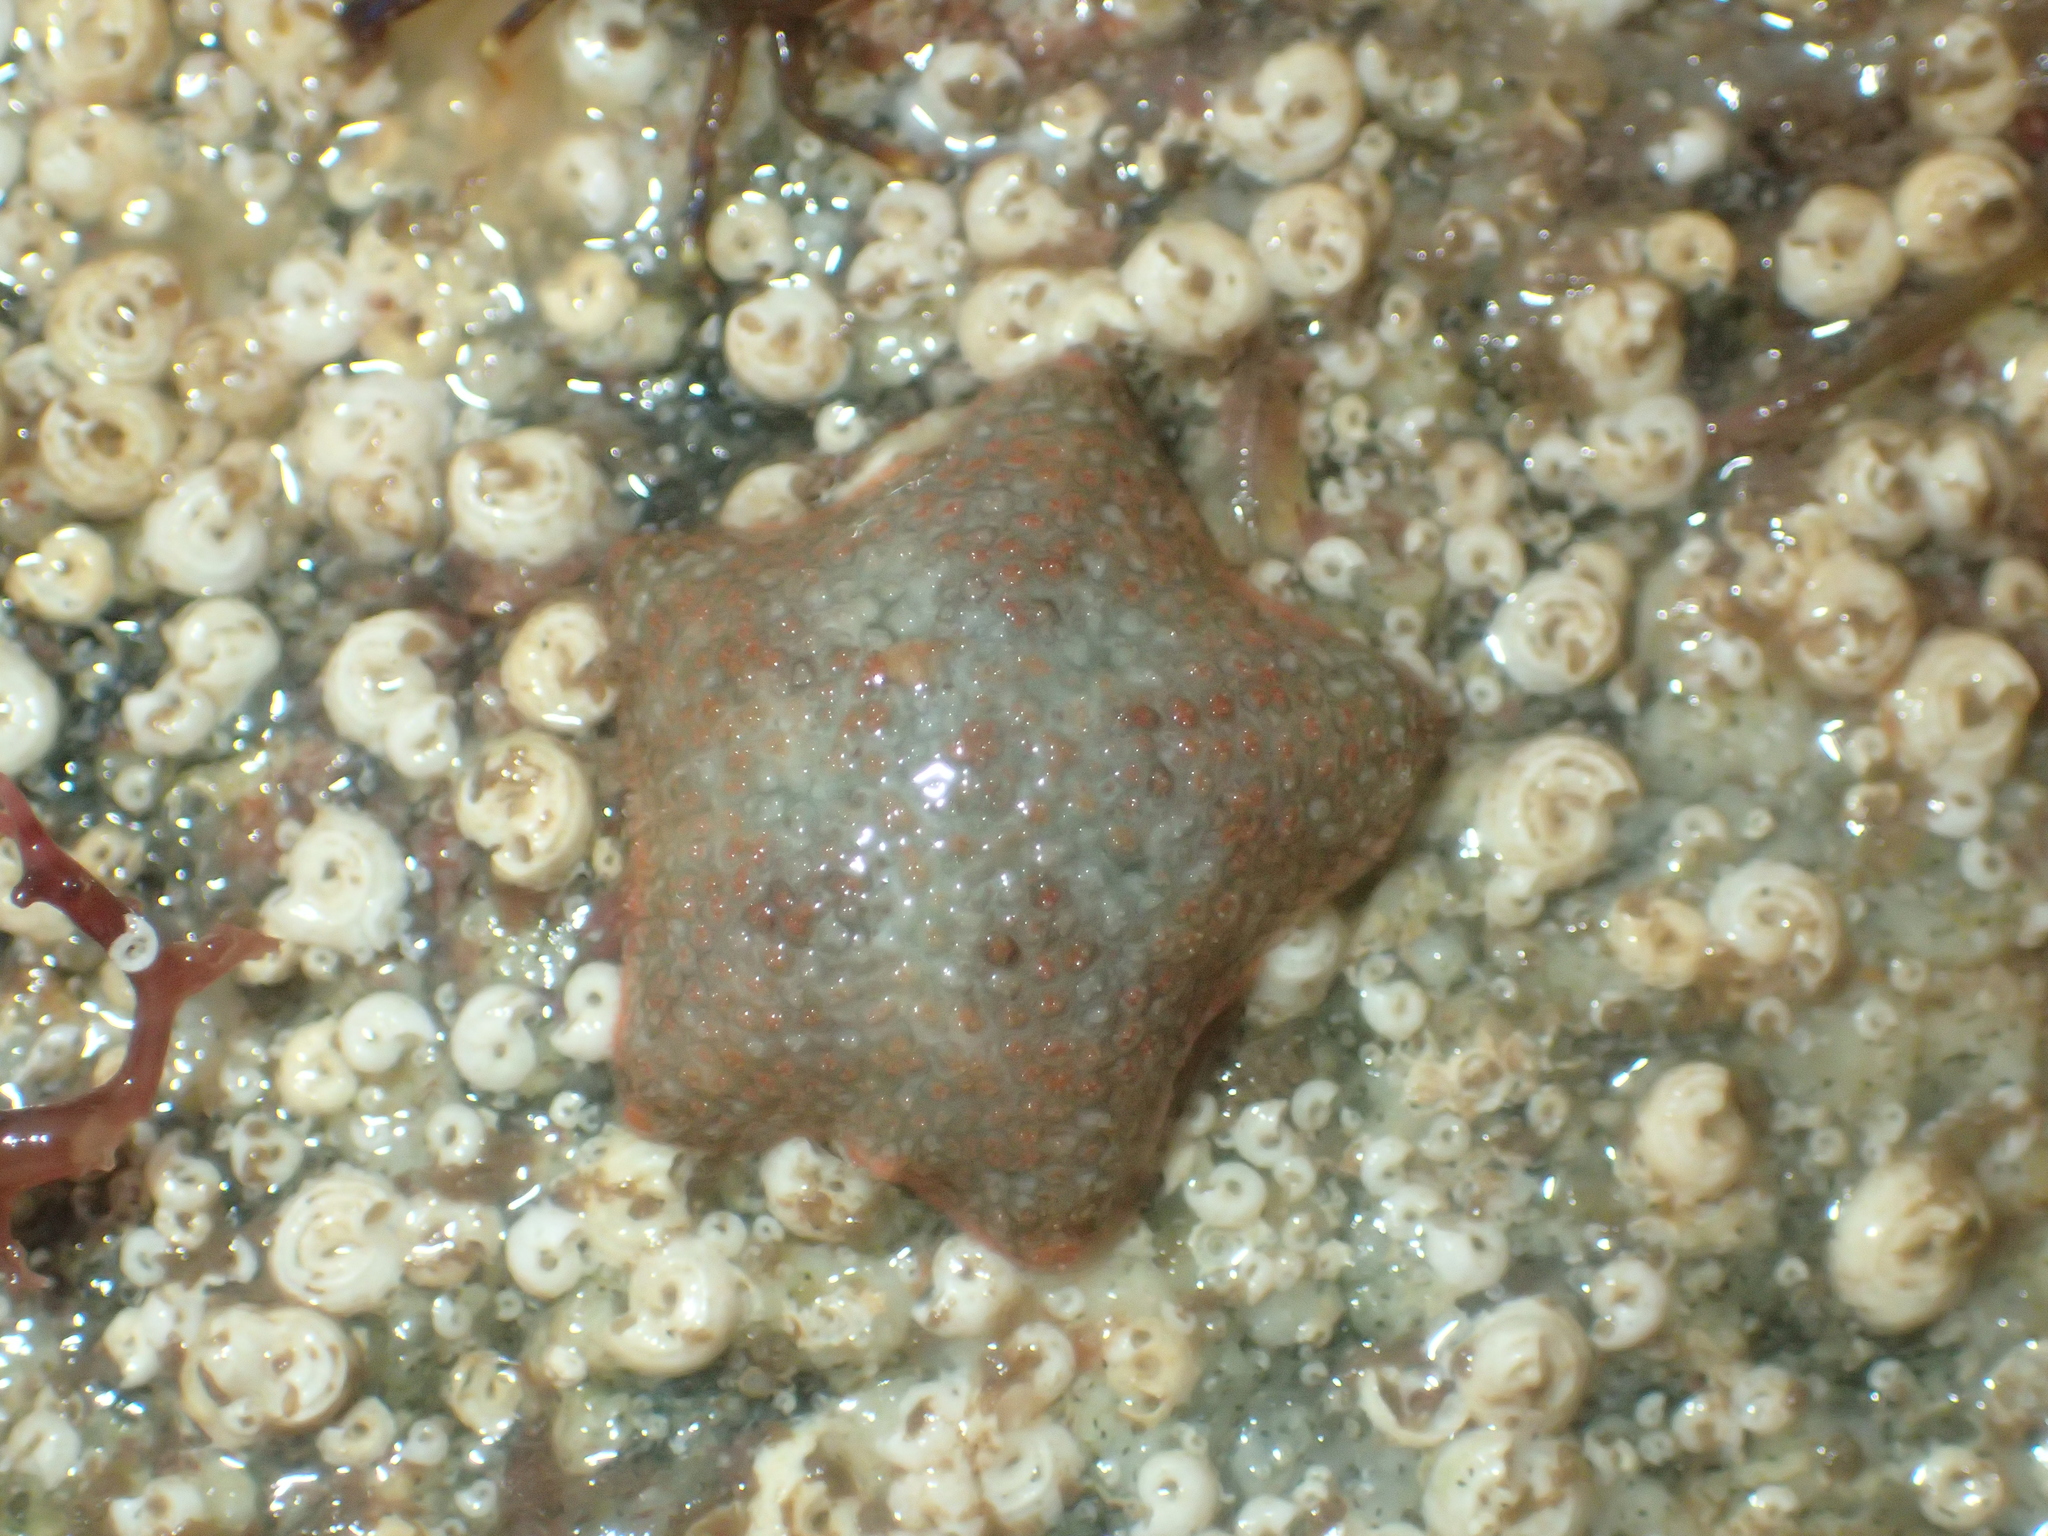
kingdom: Animalia
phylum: Echinodermata
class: Asteroidea
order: Valvatida
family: Asterinidae
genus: Asterina
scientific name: Asterina gibbosa
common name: Cushion star
